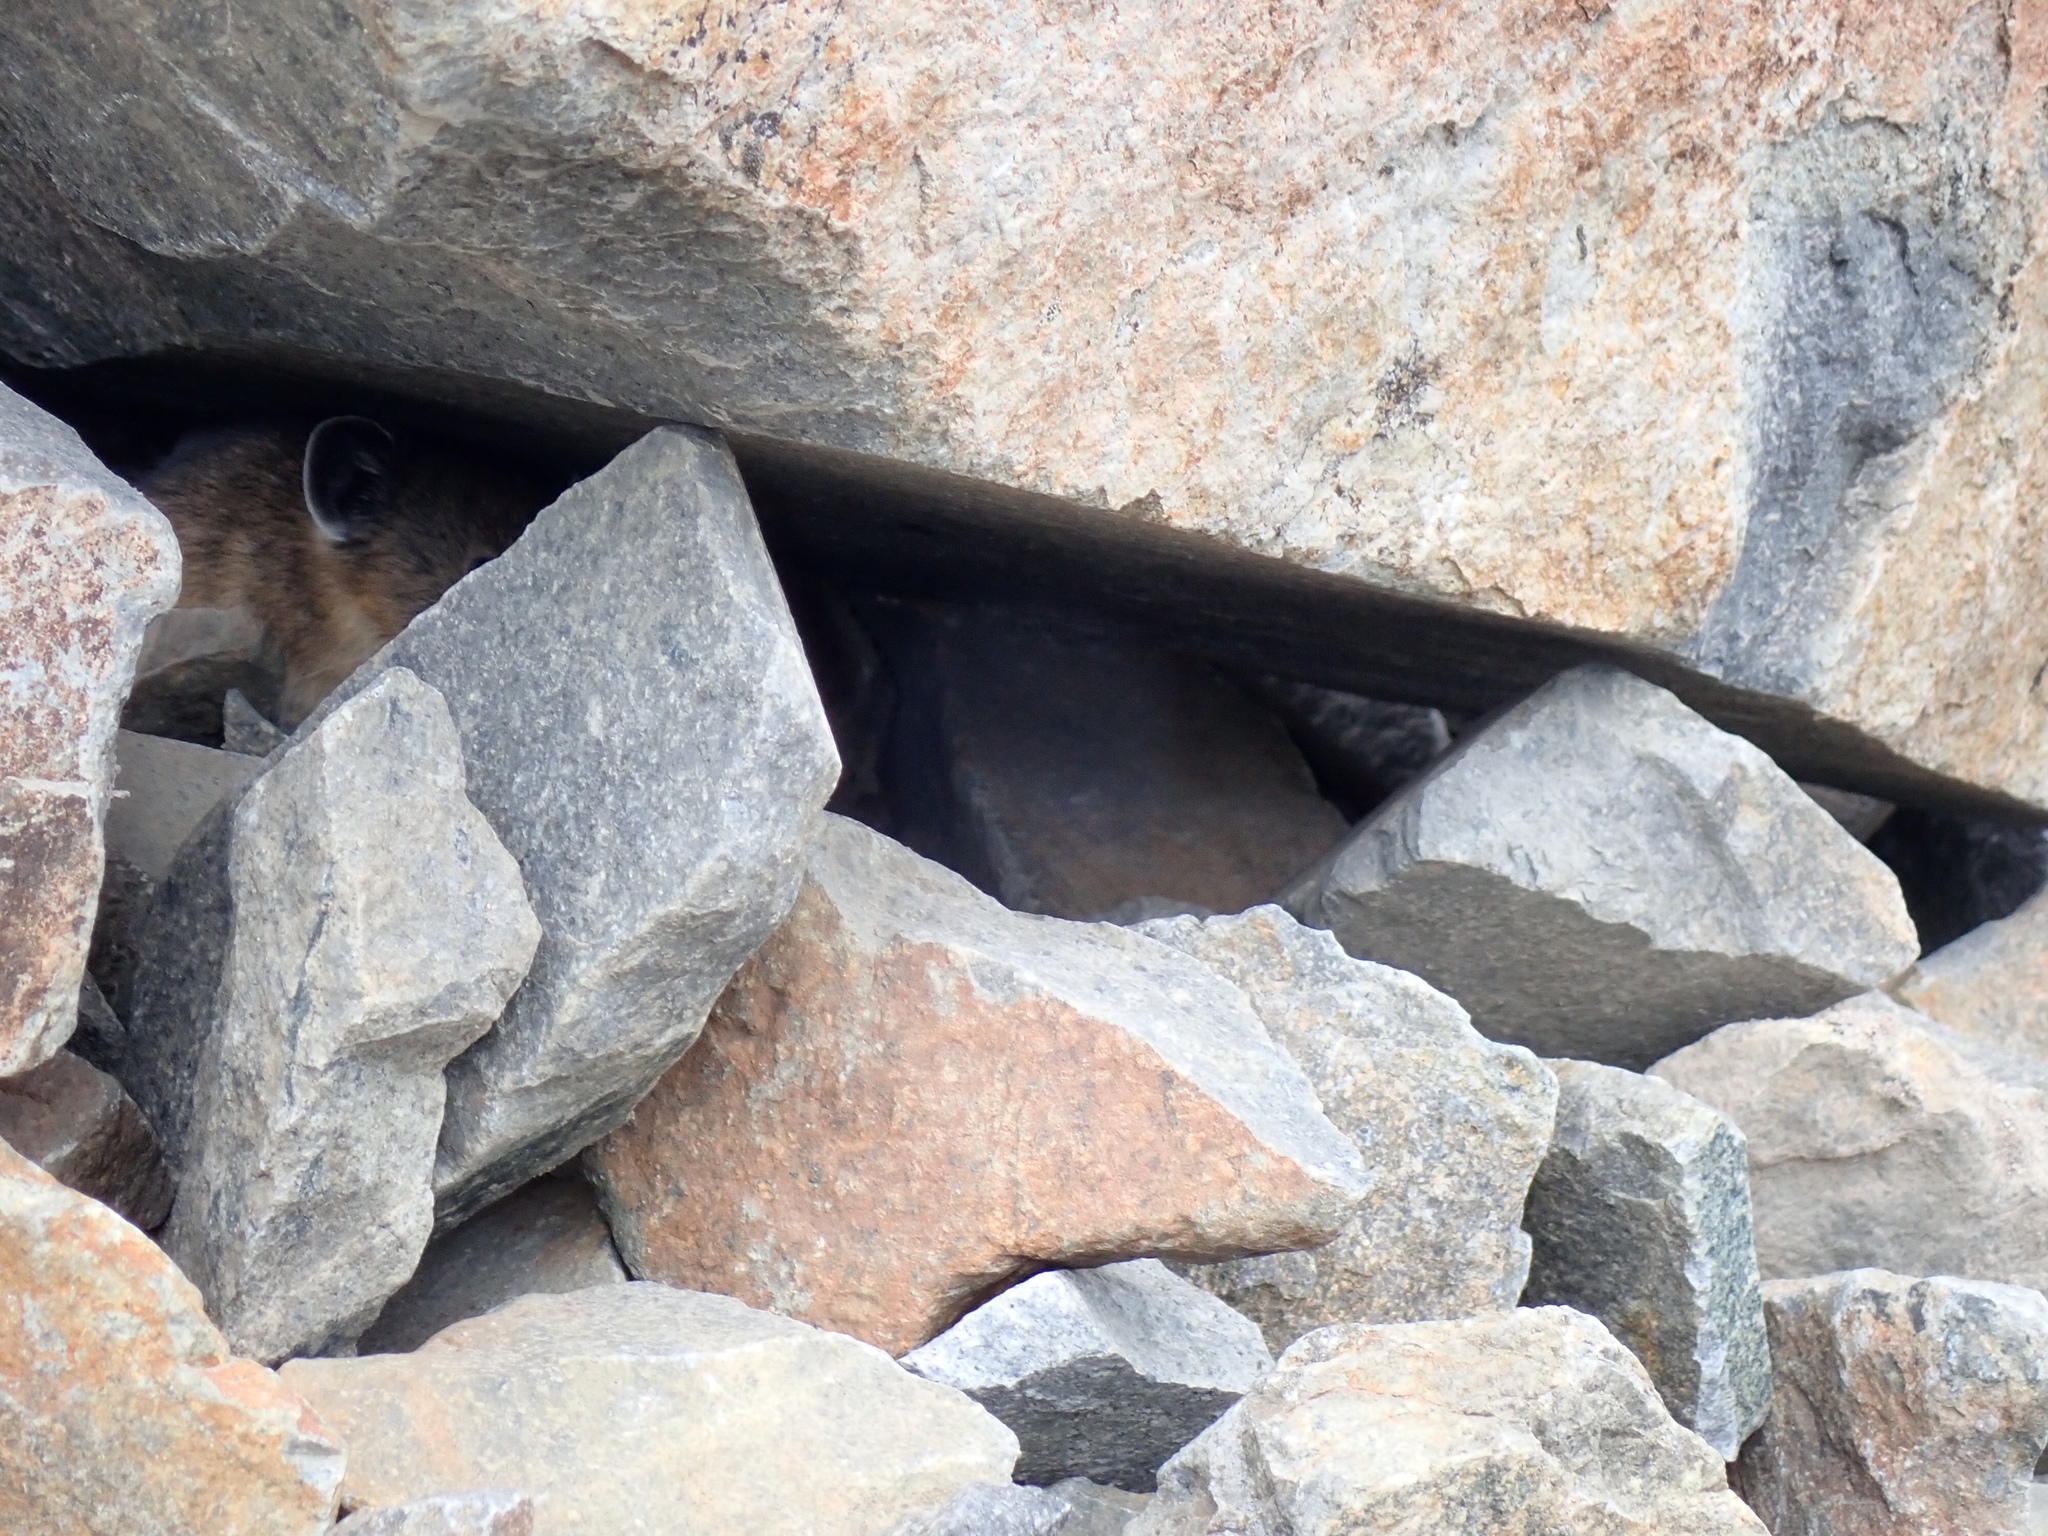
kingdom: Animalia
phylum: Chordata
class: Mammalia
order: Lagomorpha
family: Ochotonidae
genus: Ochotona
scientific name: Ochotona princeps
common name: American pika
